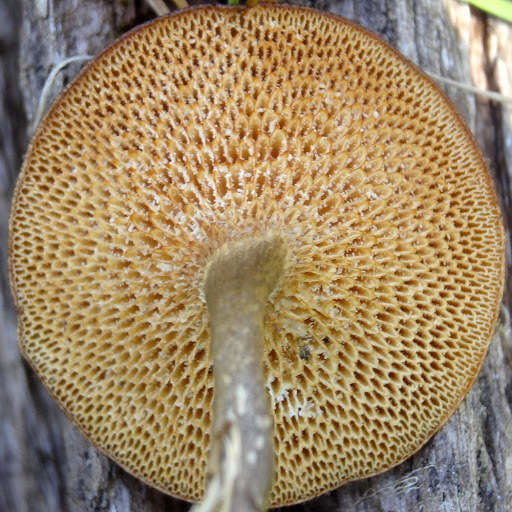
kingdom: Fungi
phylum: Basidiomycota
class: Agaricomycetes
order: Polyporales
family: Polyporaceae
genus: Lentinus
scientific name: Lentinus arcularius
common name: Spring polypore
